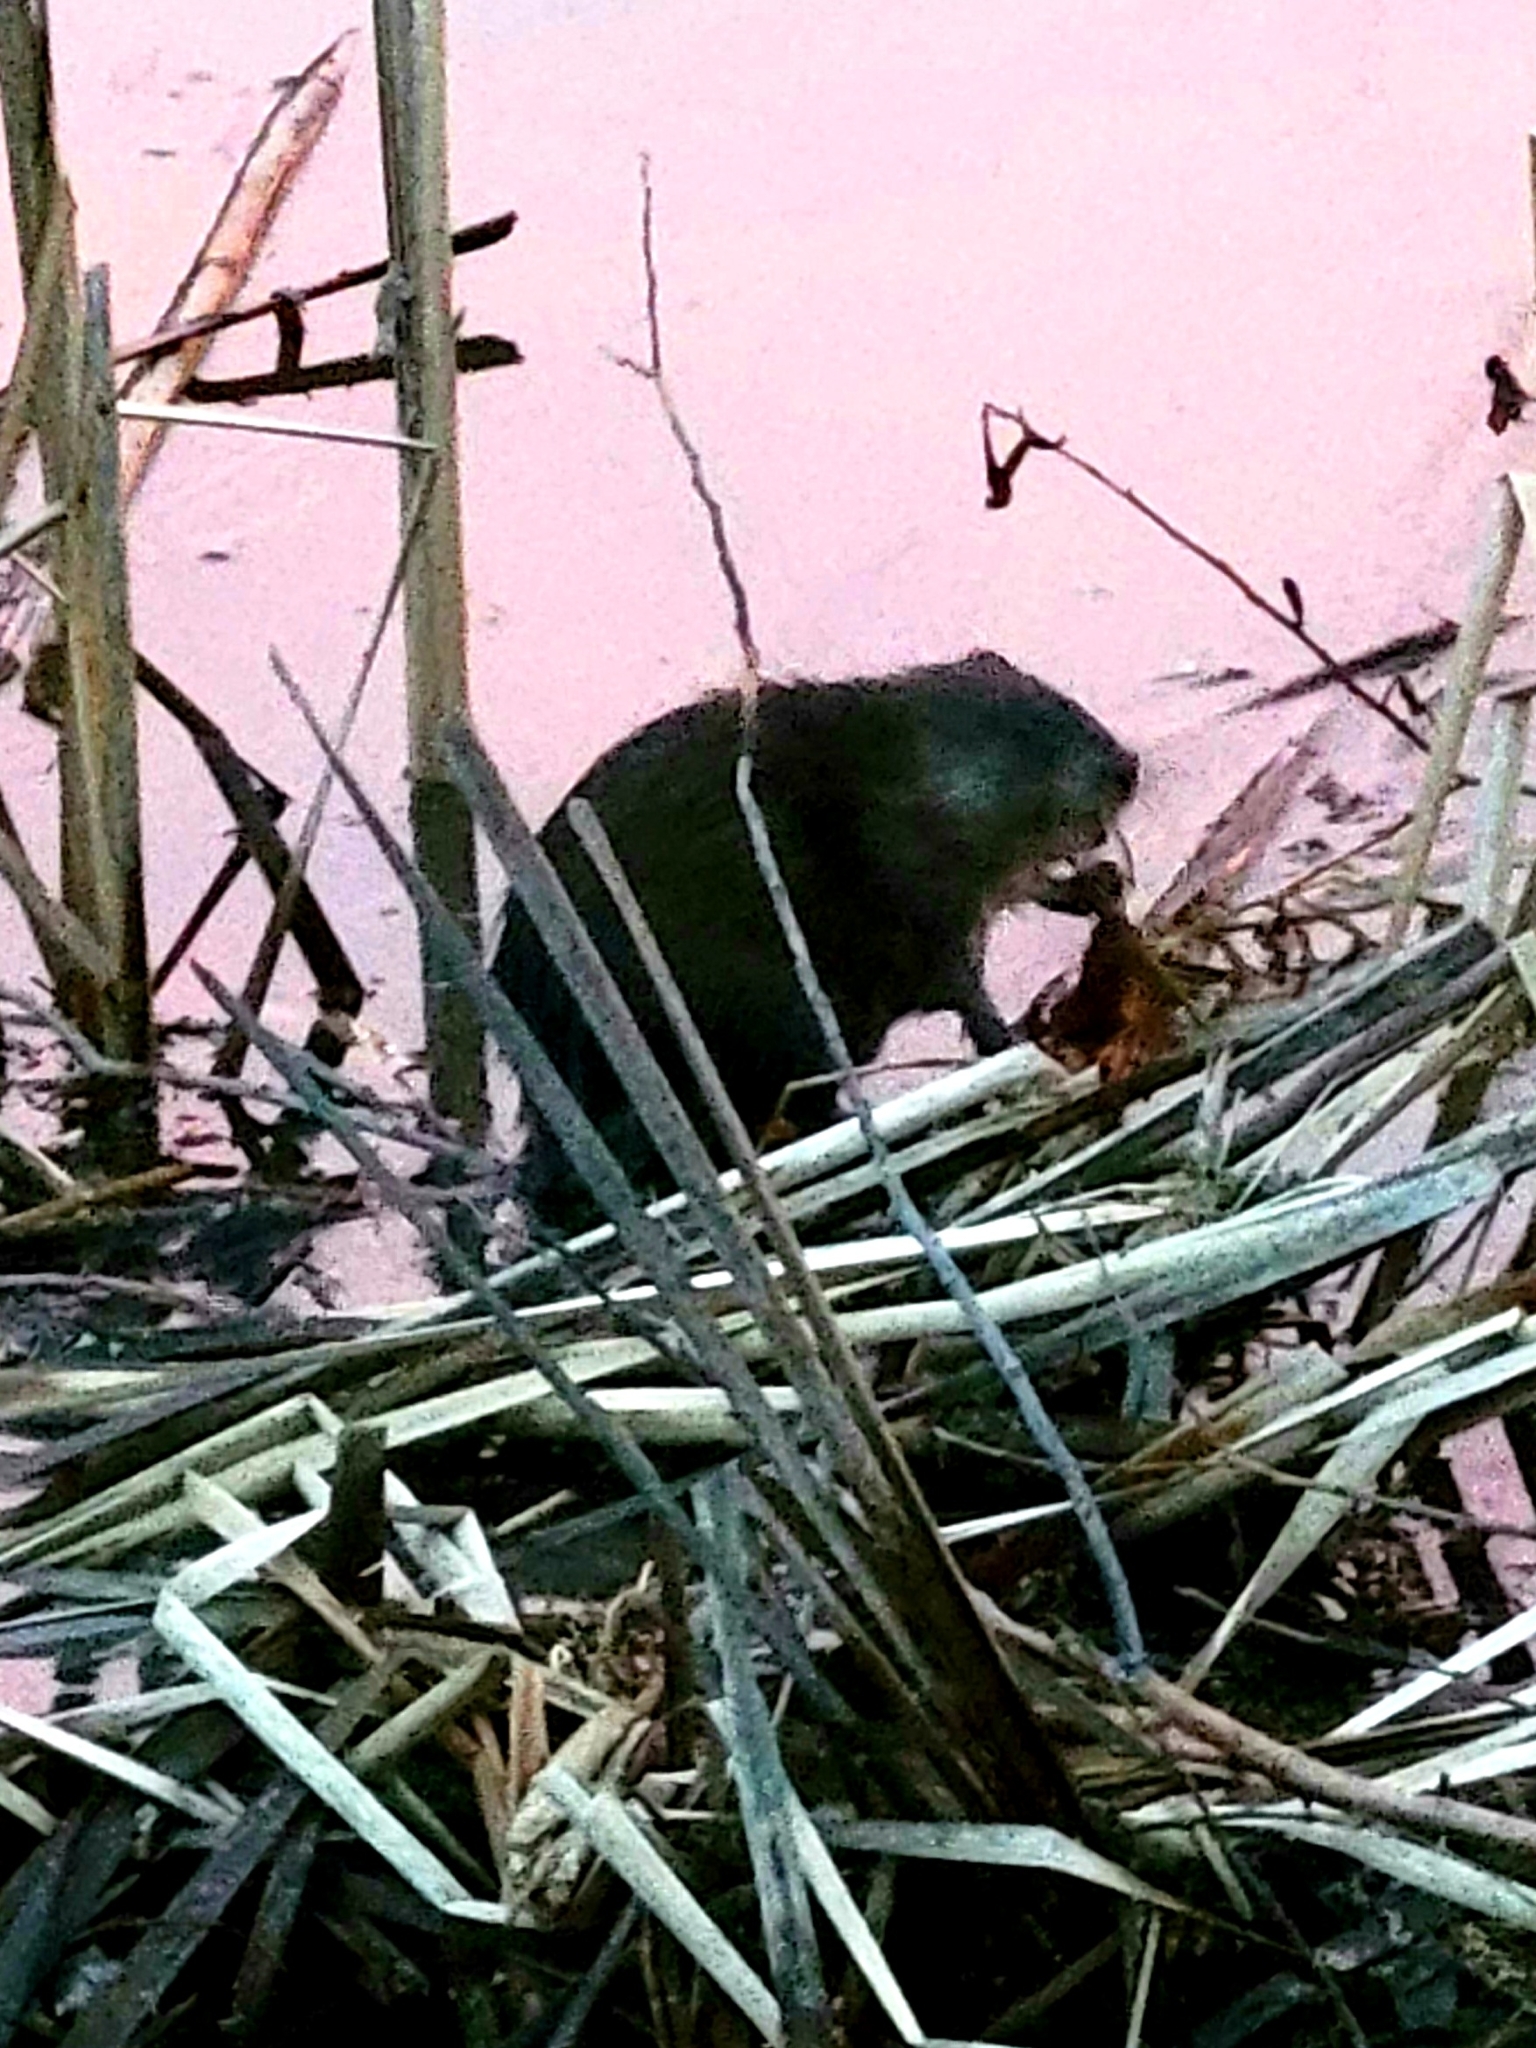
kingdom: Animalia
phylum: Chordata
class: Mammalia
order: Rodentia
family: Cricetidae
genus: Ondatra
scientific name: Ondatra zibethicus
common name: Muskrat
